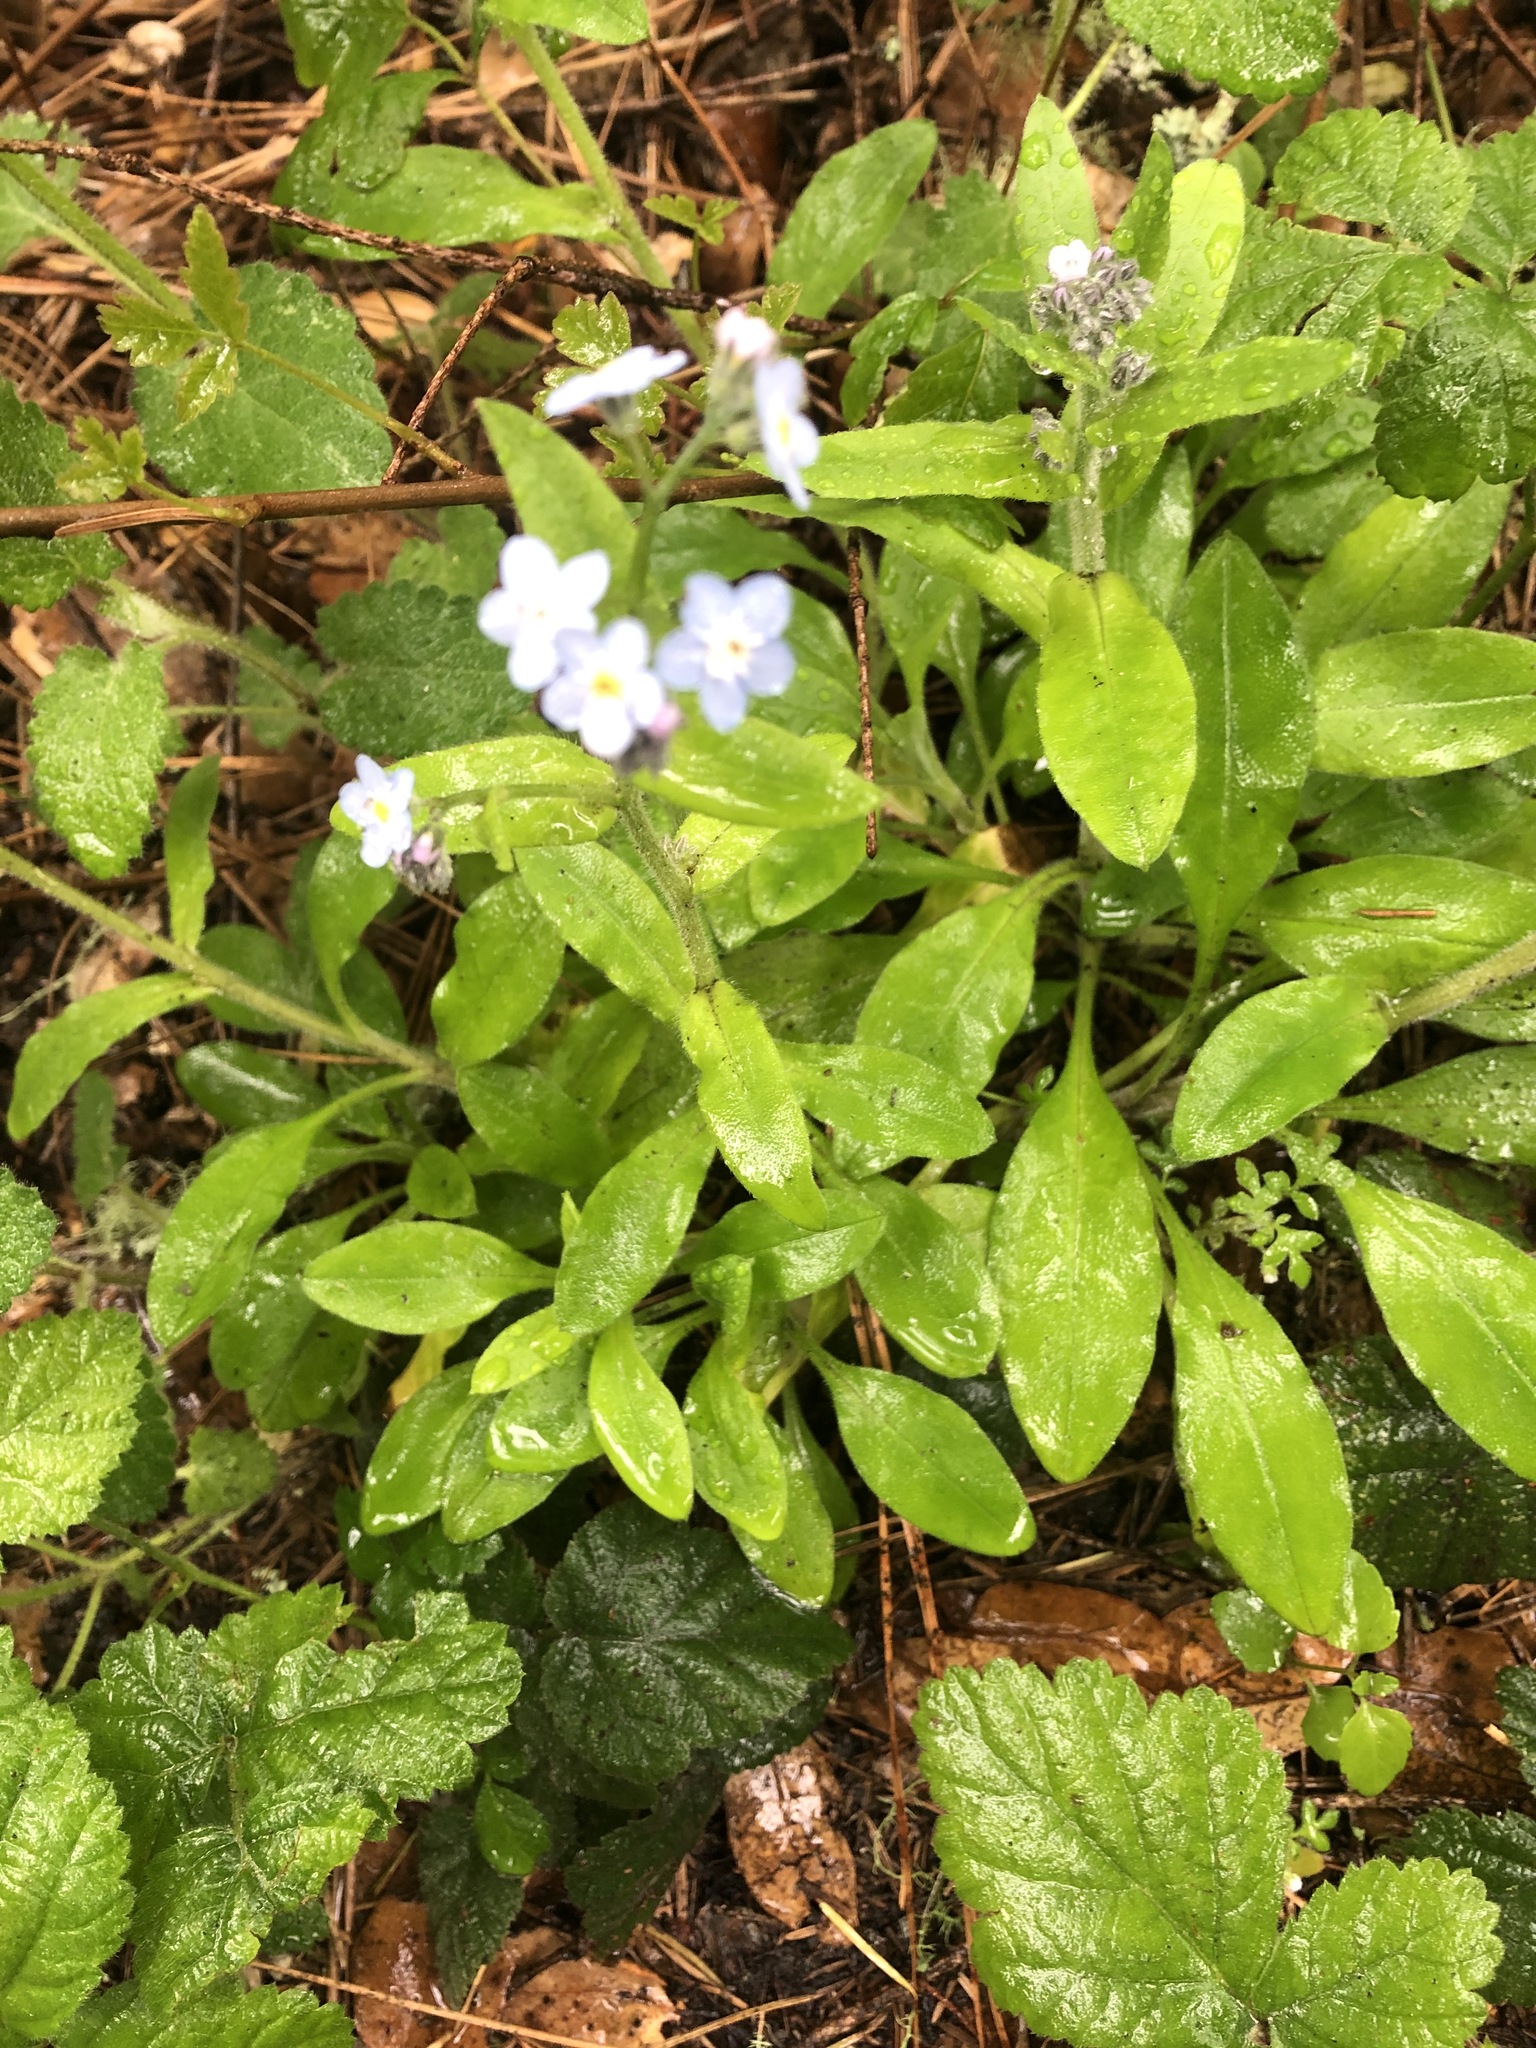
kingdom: Plantae
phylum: Tracheophyta
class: Magnoliopsida
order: Boraginales
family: Boraginaceae
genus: Myosotis
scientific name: Myosotis latifolia
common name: Broadleaf forget-me-not
